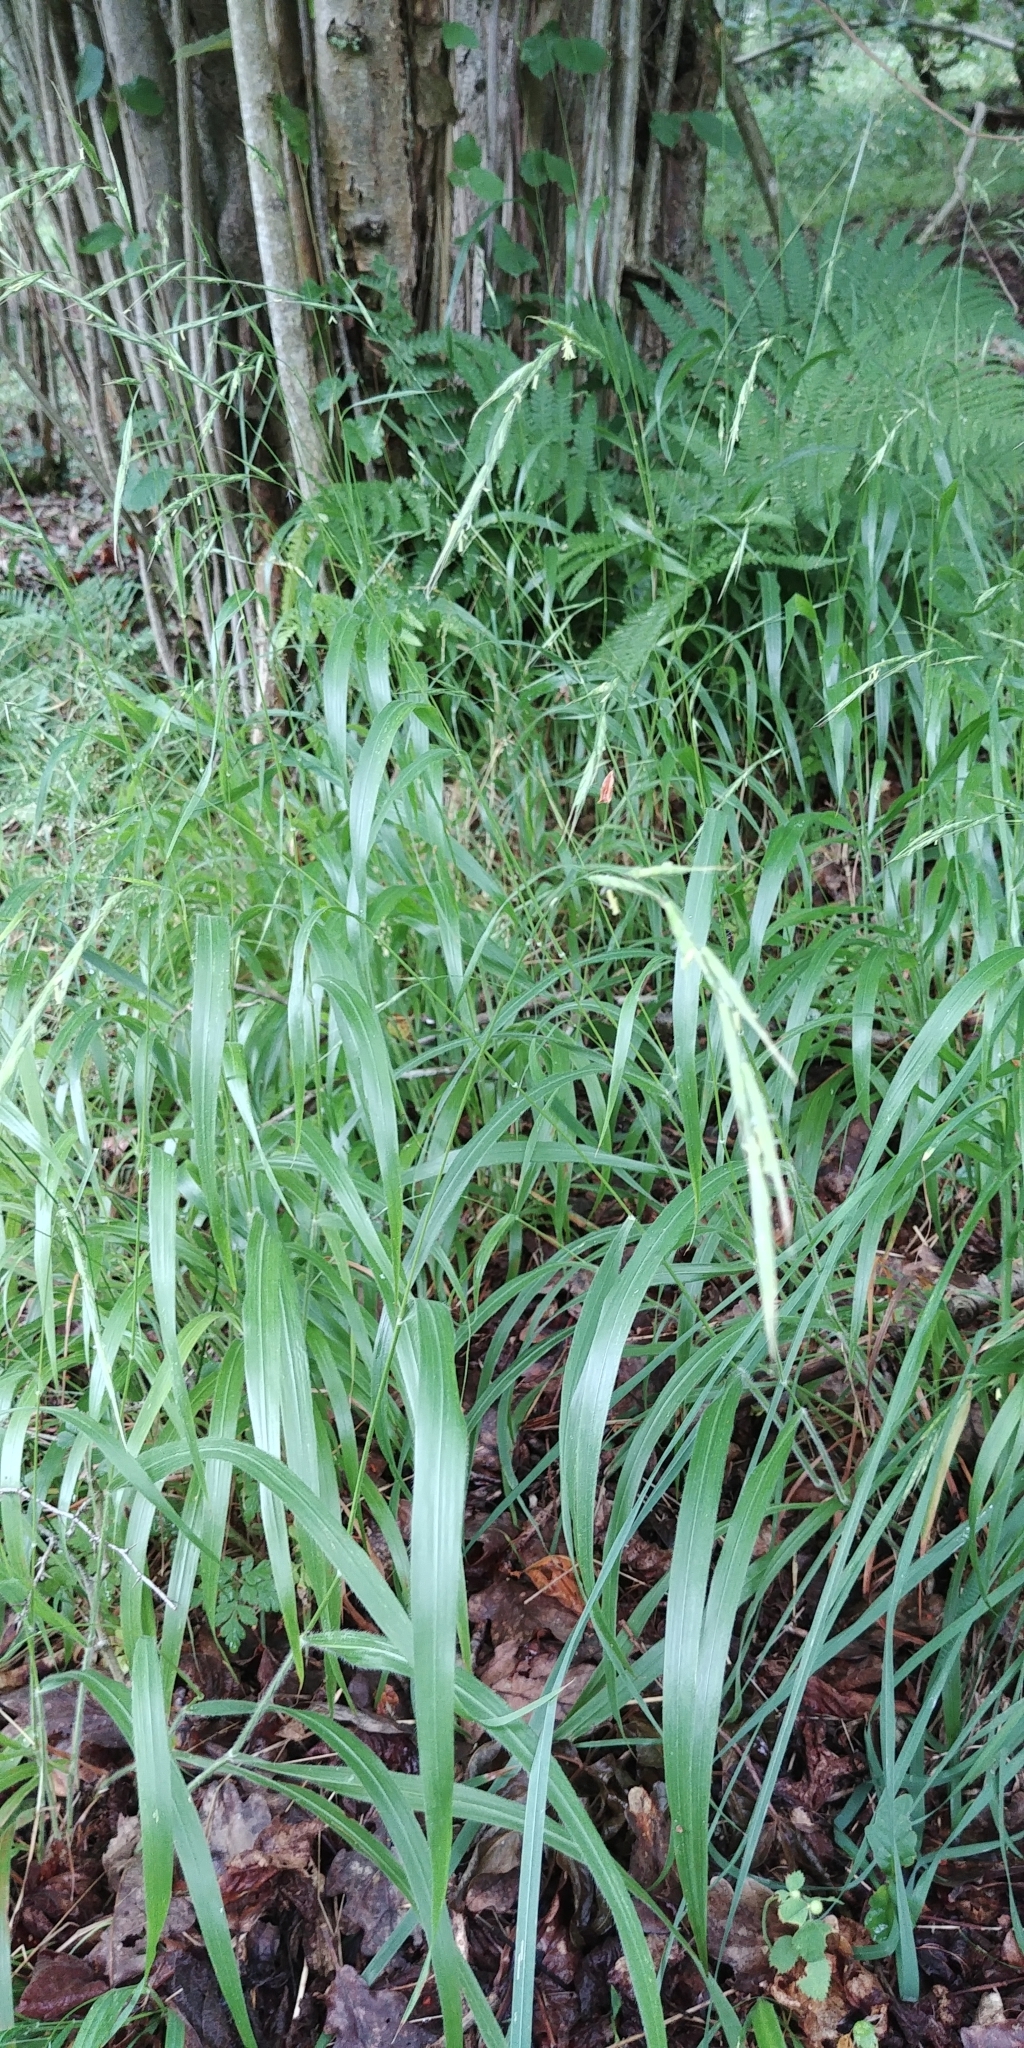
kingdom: Plantae
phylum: Tracheophyta
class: Liliopsida
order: Poales
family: Poaceae
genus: Brachypodium
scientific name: Brachypodium sylvaticum
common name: False-brome
